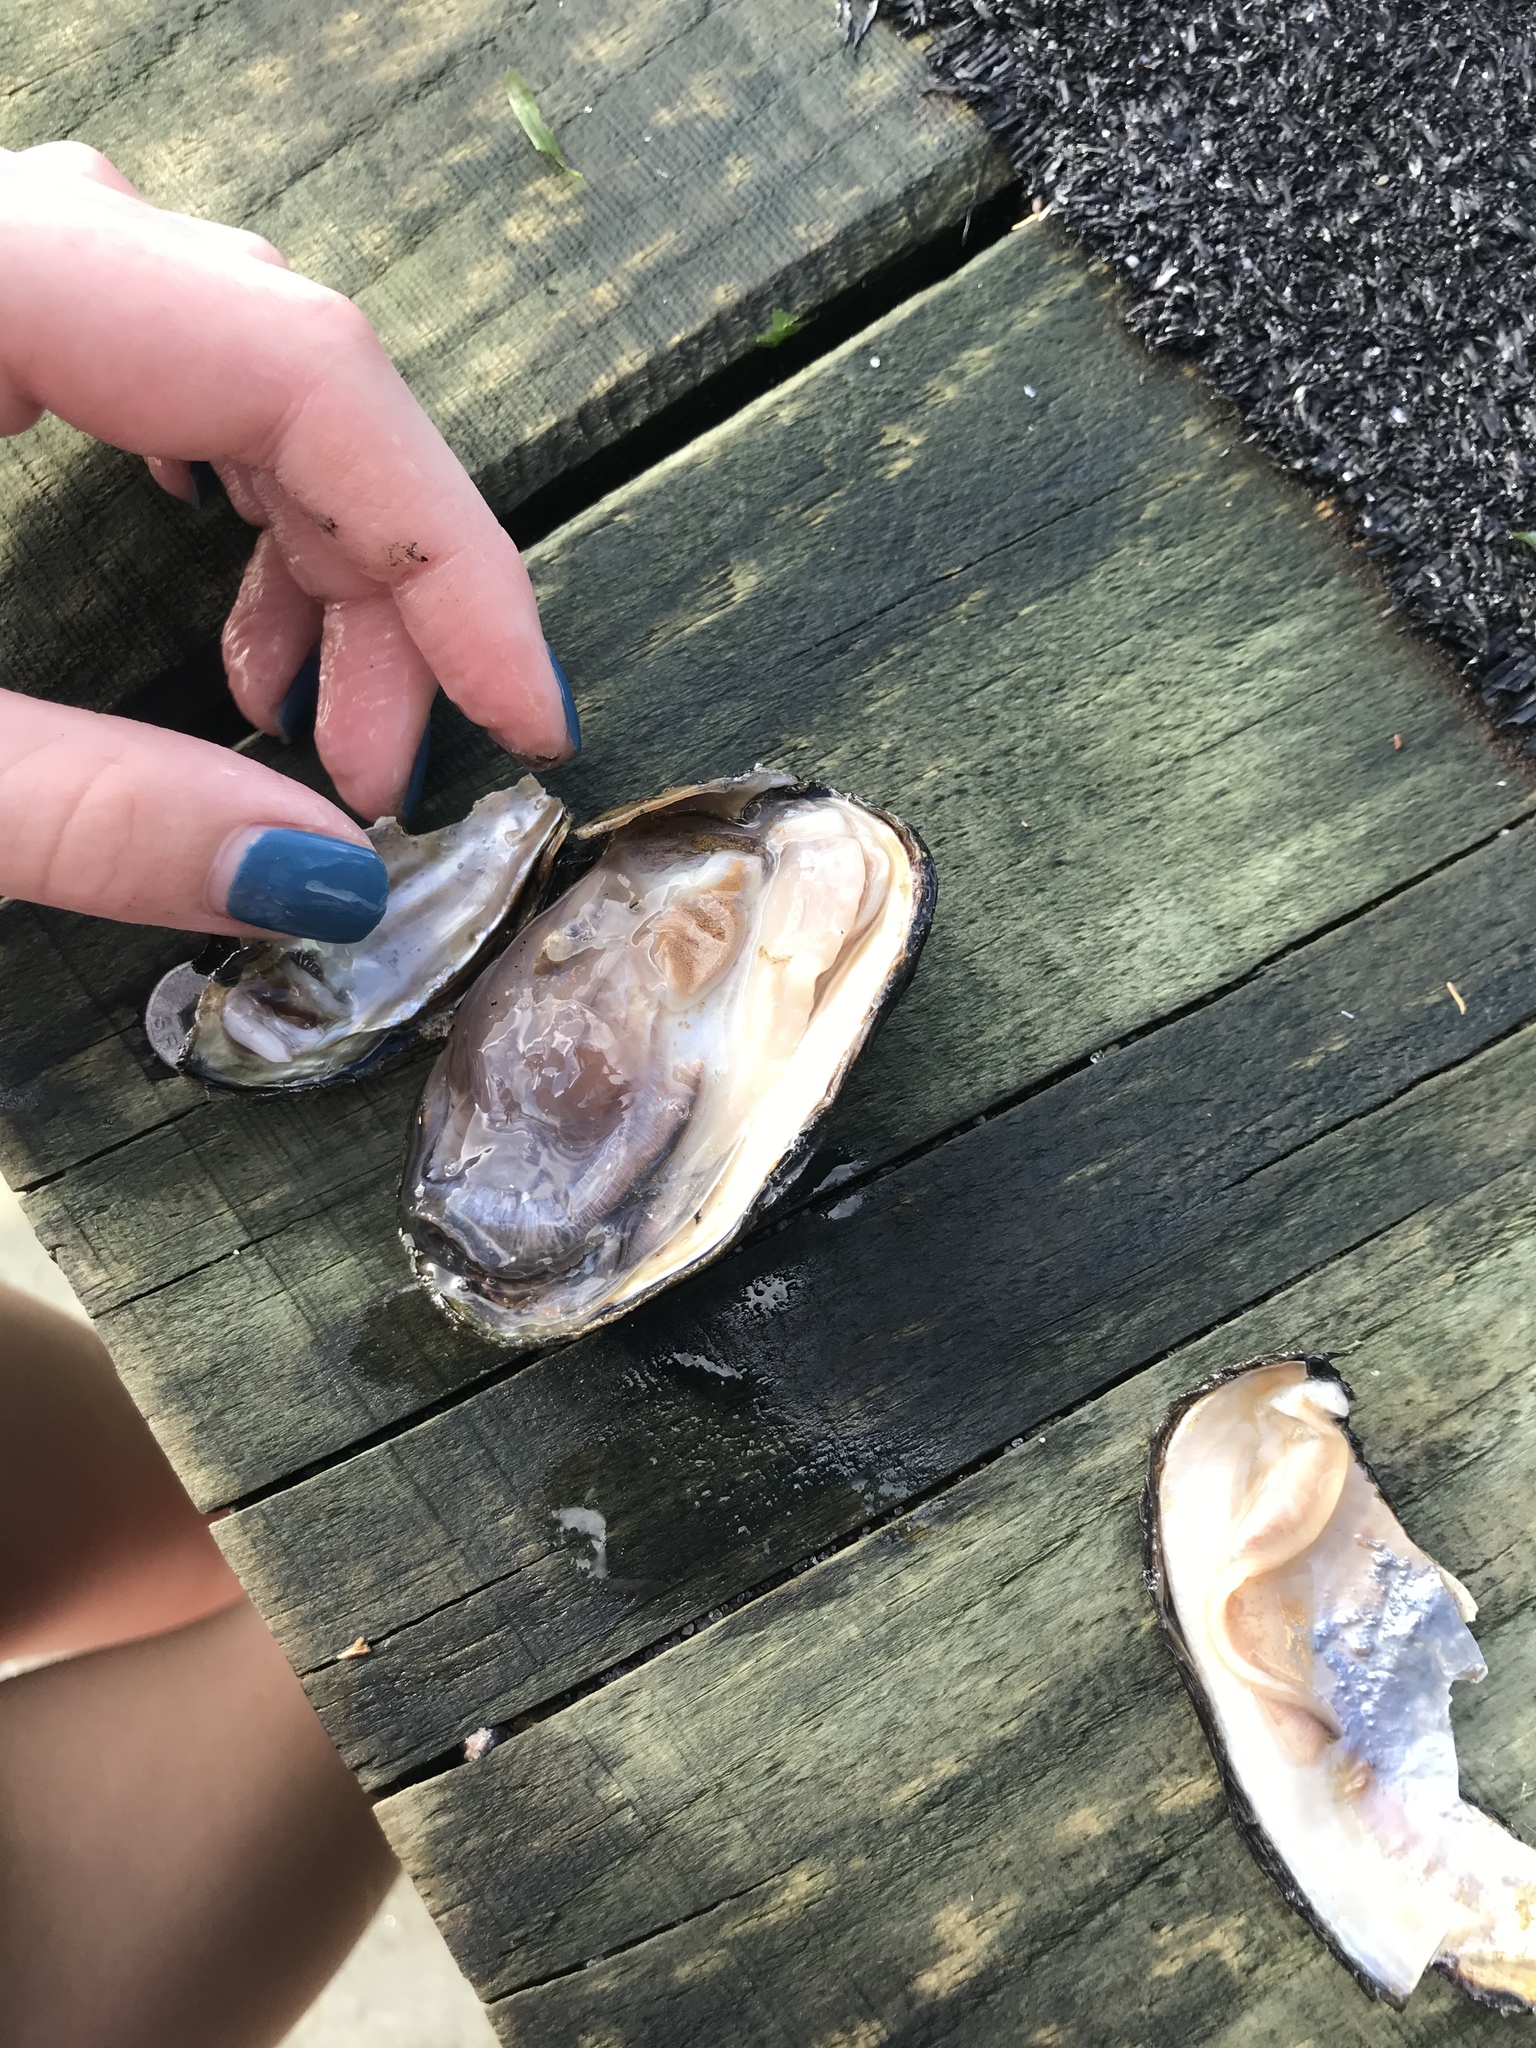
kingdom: Animalia
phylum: Mollusca
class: Bivalvia
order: Unionida
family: Hyriidae
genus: Echyridella
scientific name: Echyridella menziesii
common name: New zealand freshwater mussel
